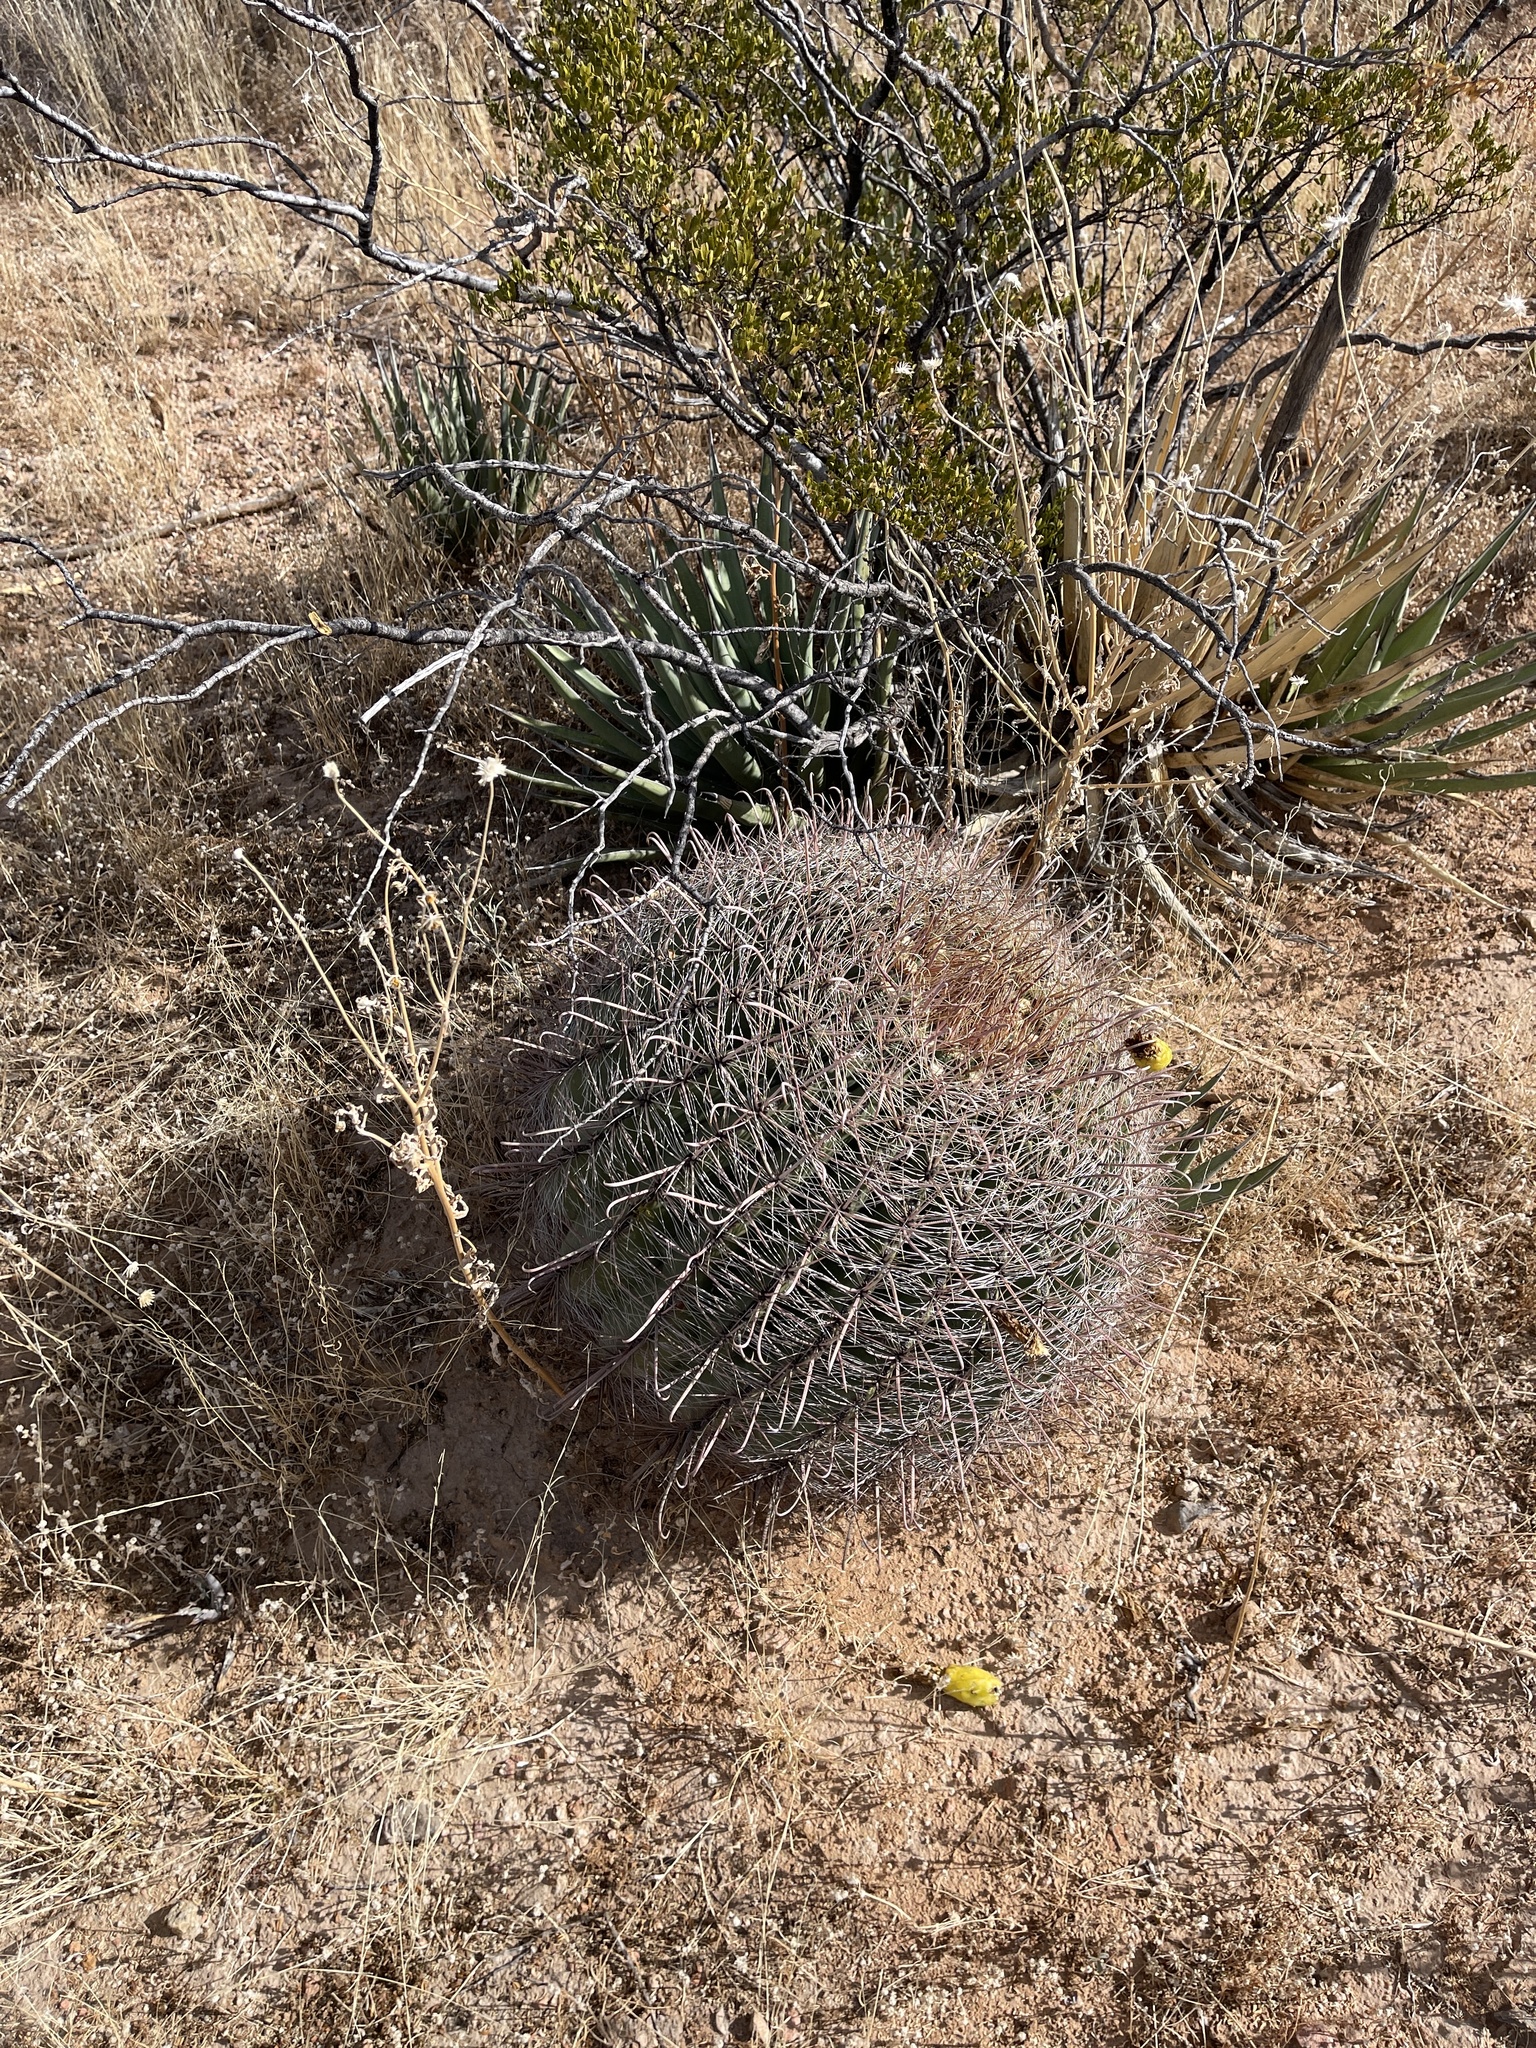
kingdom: Plantae
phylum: Tracheophyta
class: Magnoliopsida
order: Caryophyllales
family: Cactaceae
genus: Ferocactus
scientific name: Ferocactus wislizeni
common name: Candy barrel cactus
